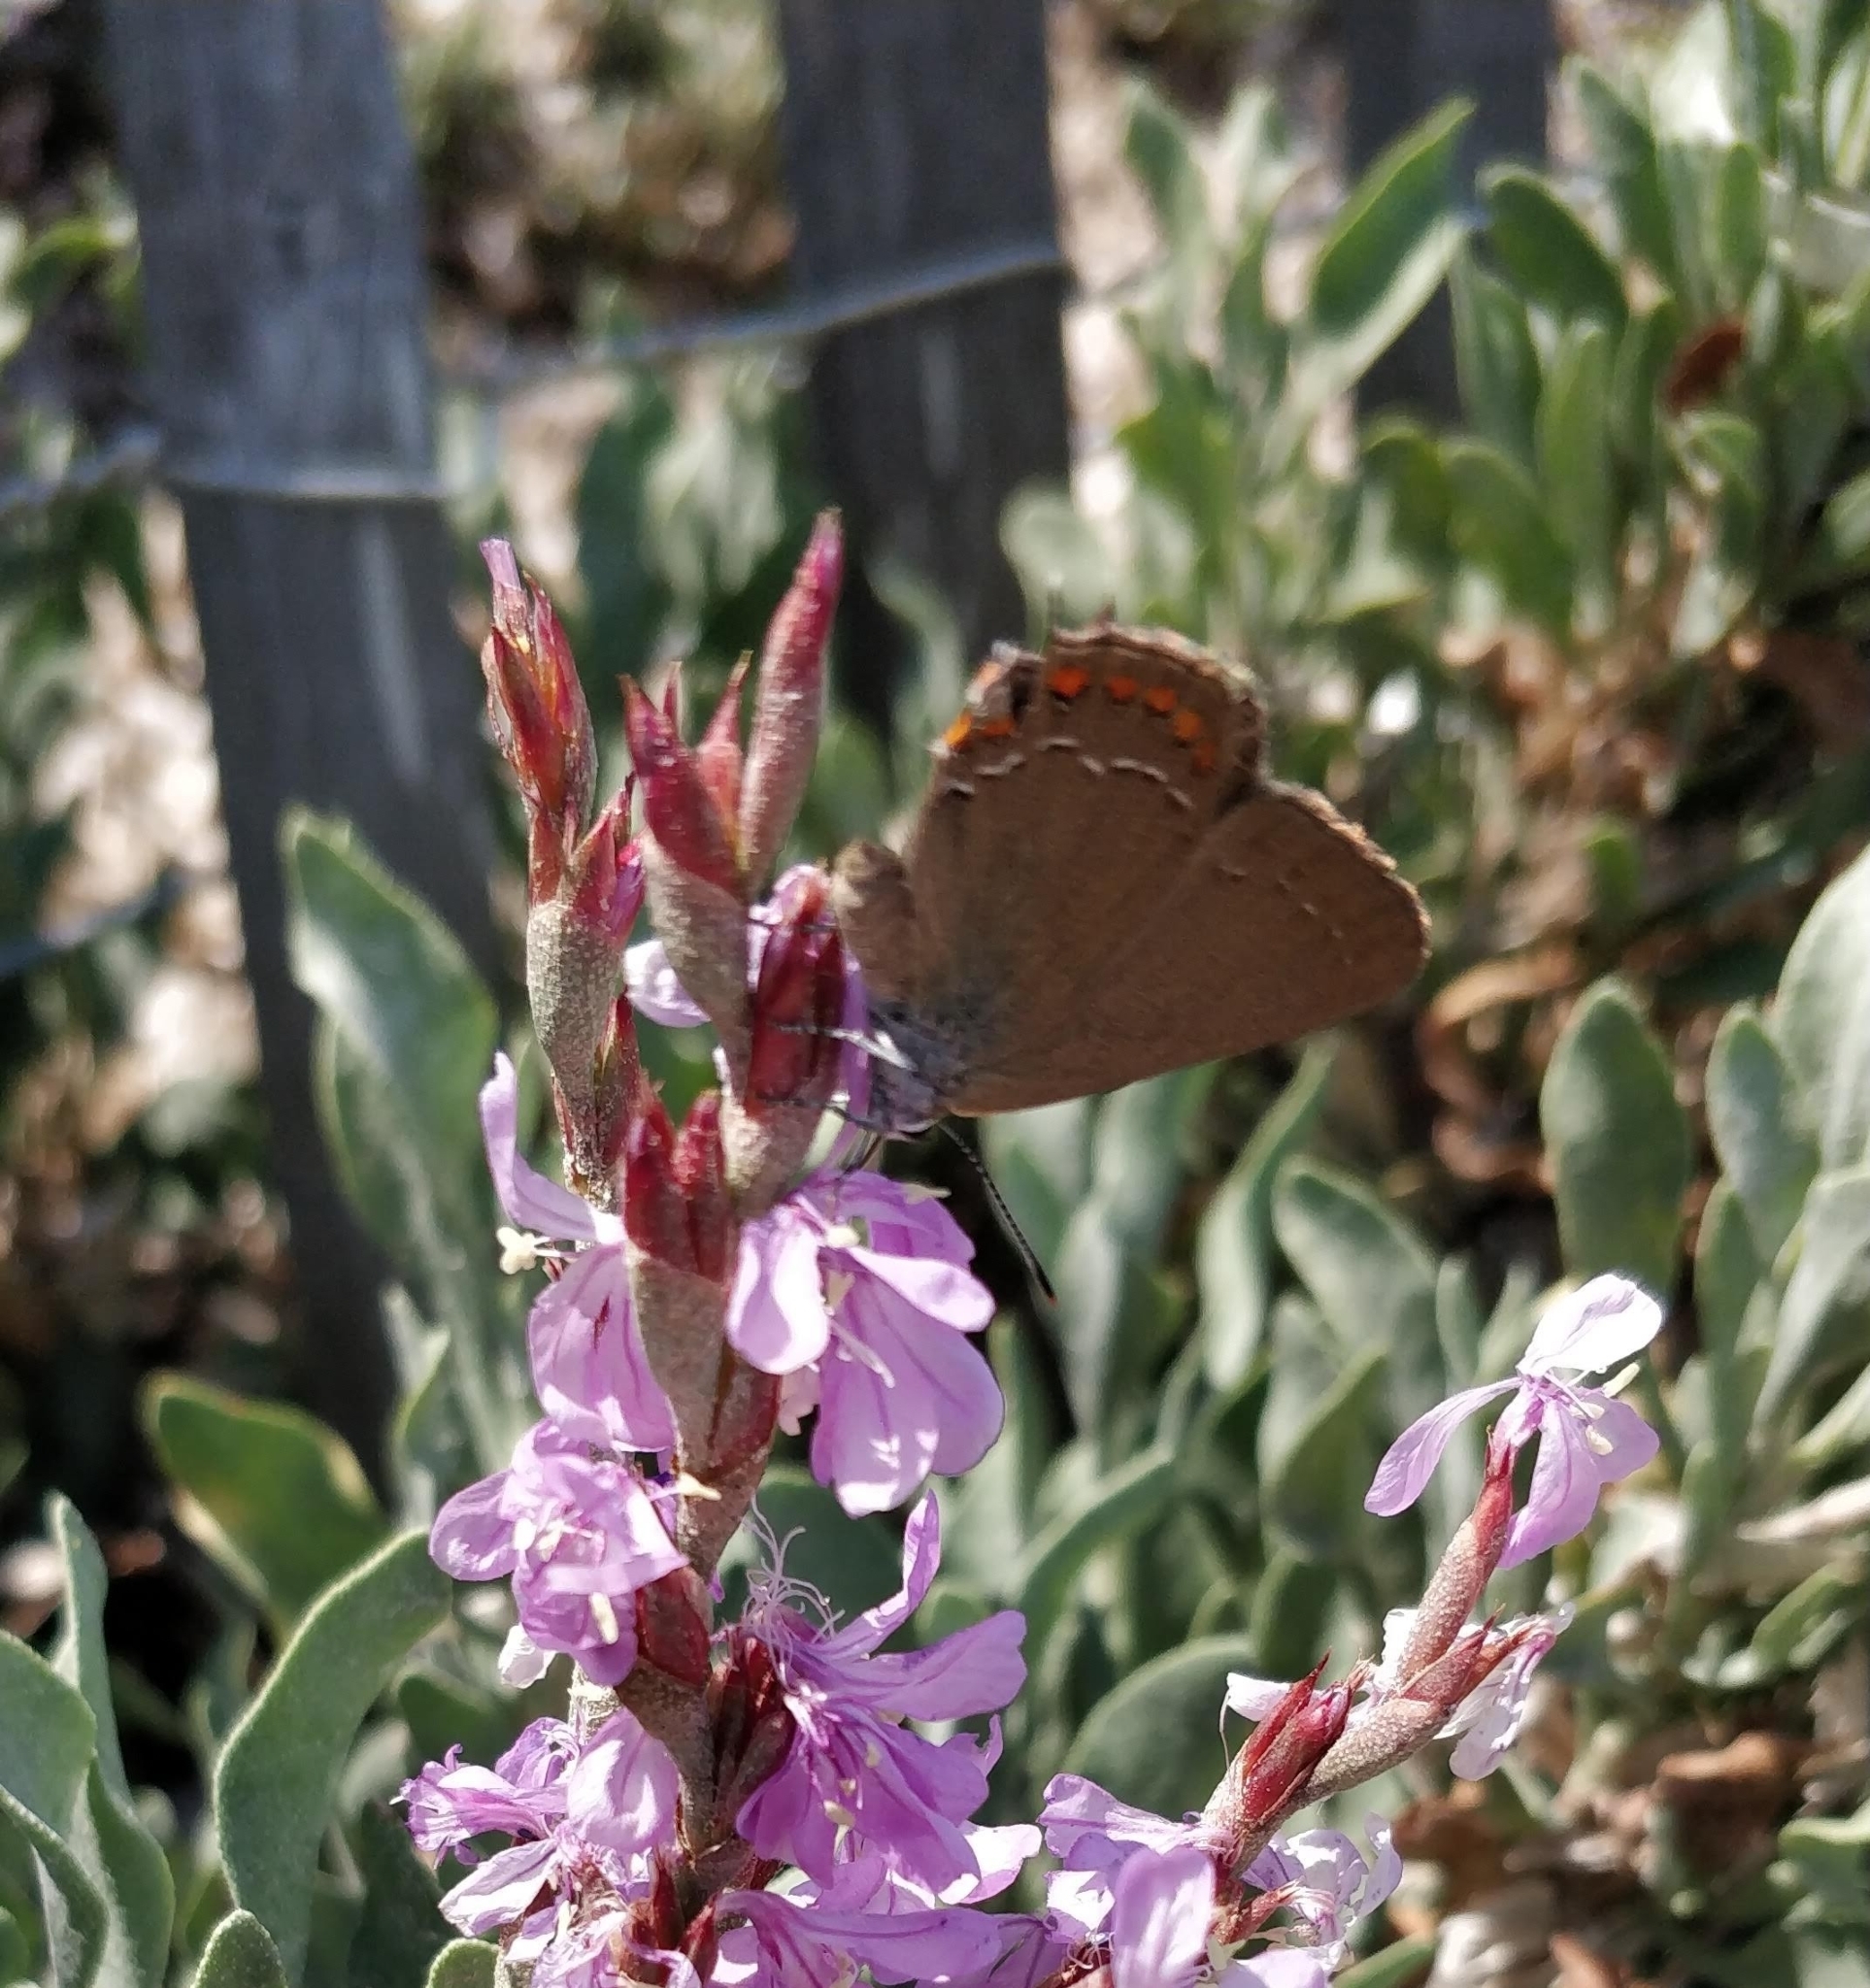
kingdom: Animalia
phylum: Arthropoda
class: Insecta
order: Lepidoptera
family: Lycaenidae
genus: Fixsenia
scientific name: Fixsenia esculi
